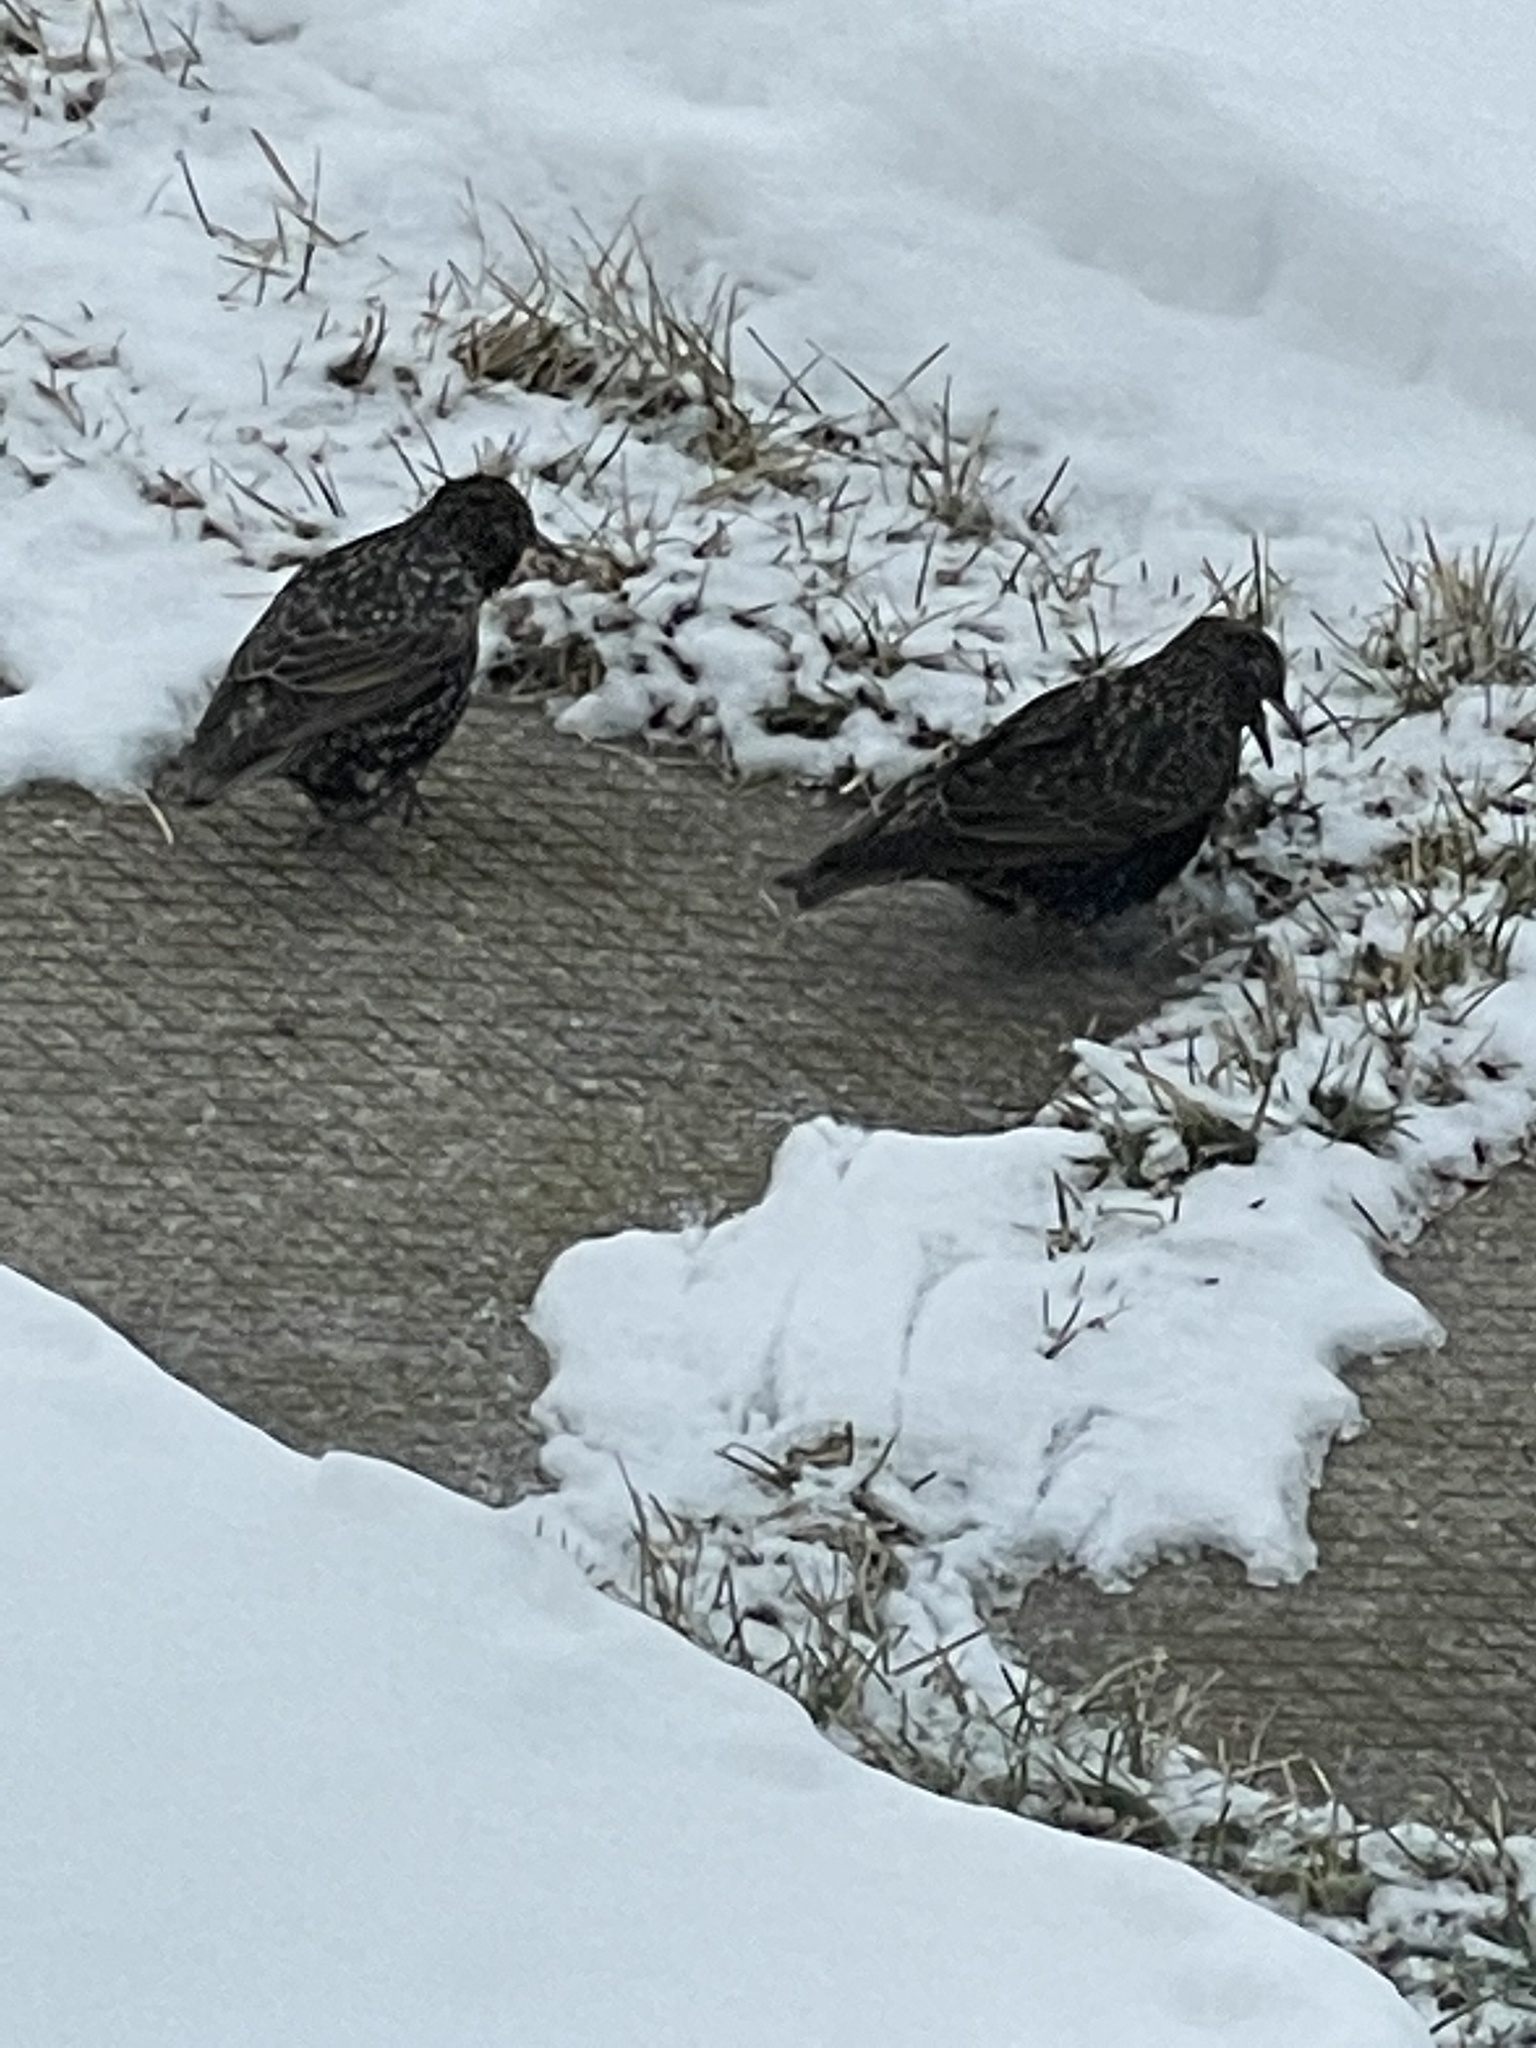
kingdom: Animalia
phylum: Chordata
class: Aves
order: Passeriformes
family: Sturnidae
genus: Sturnus
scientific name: Sturnus vulgaris
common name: Common starling
